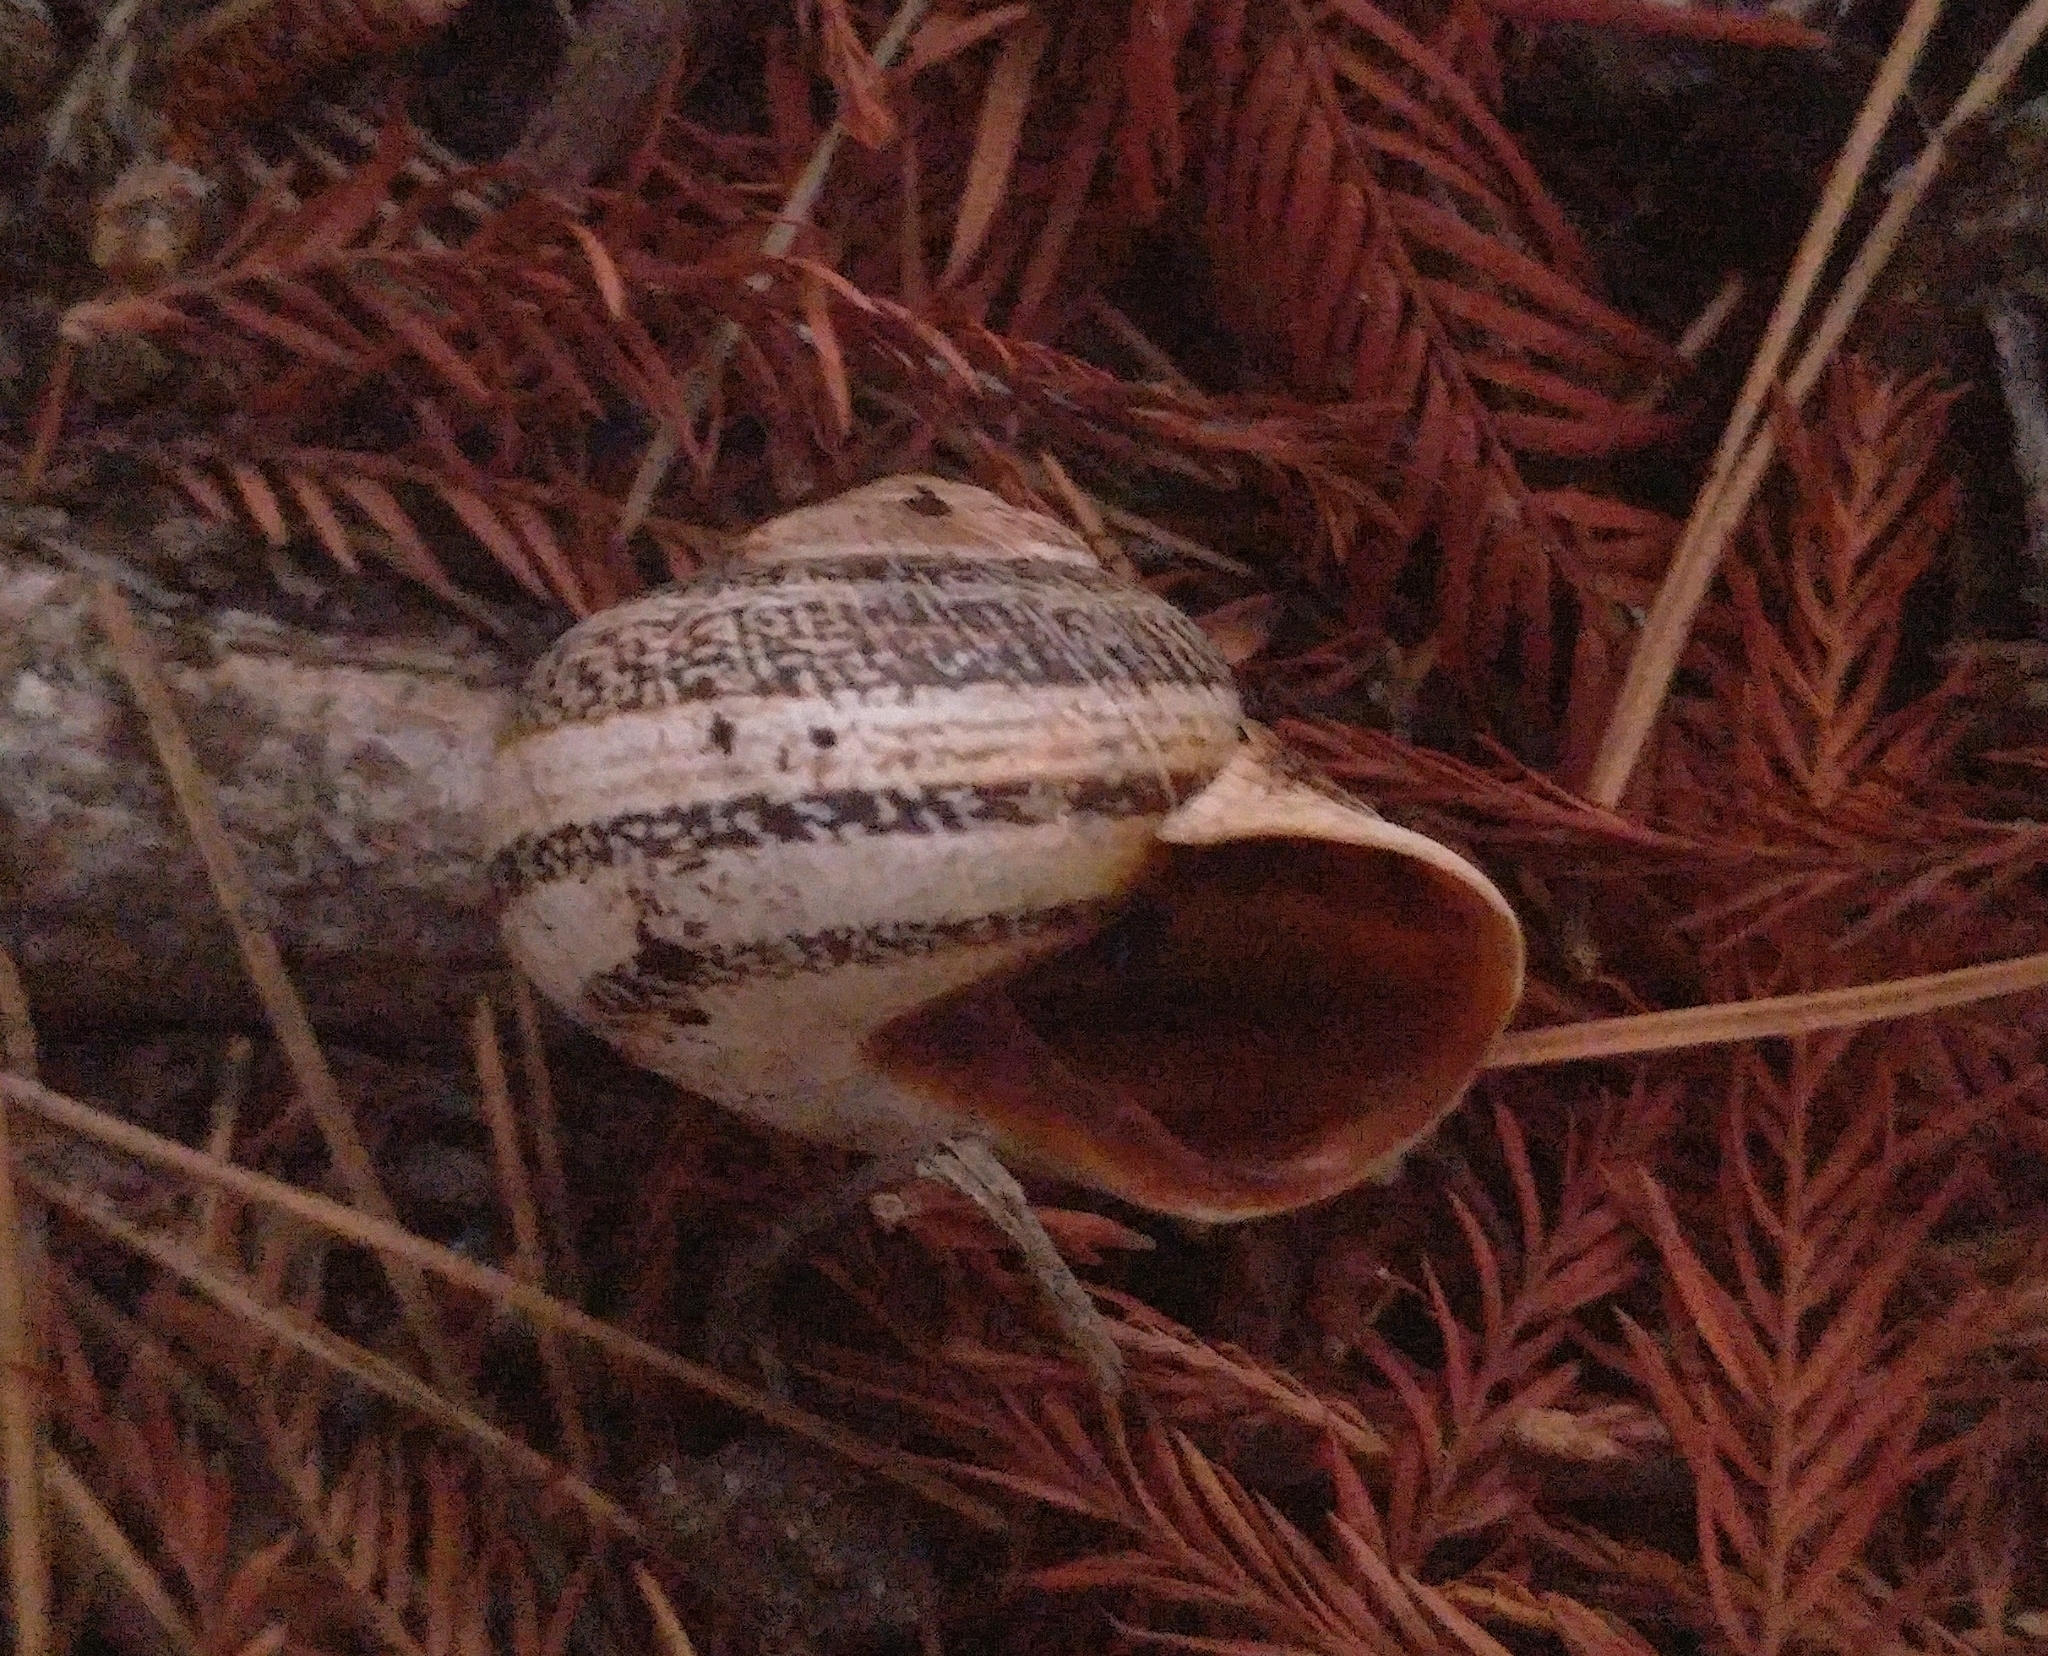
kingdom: Animalia
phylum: Mollusca
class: Gastropoda
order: Stylommatophora
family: Helicidae
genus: Otala
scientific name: Otala lactea
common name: Milk snail
